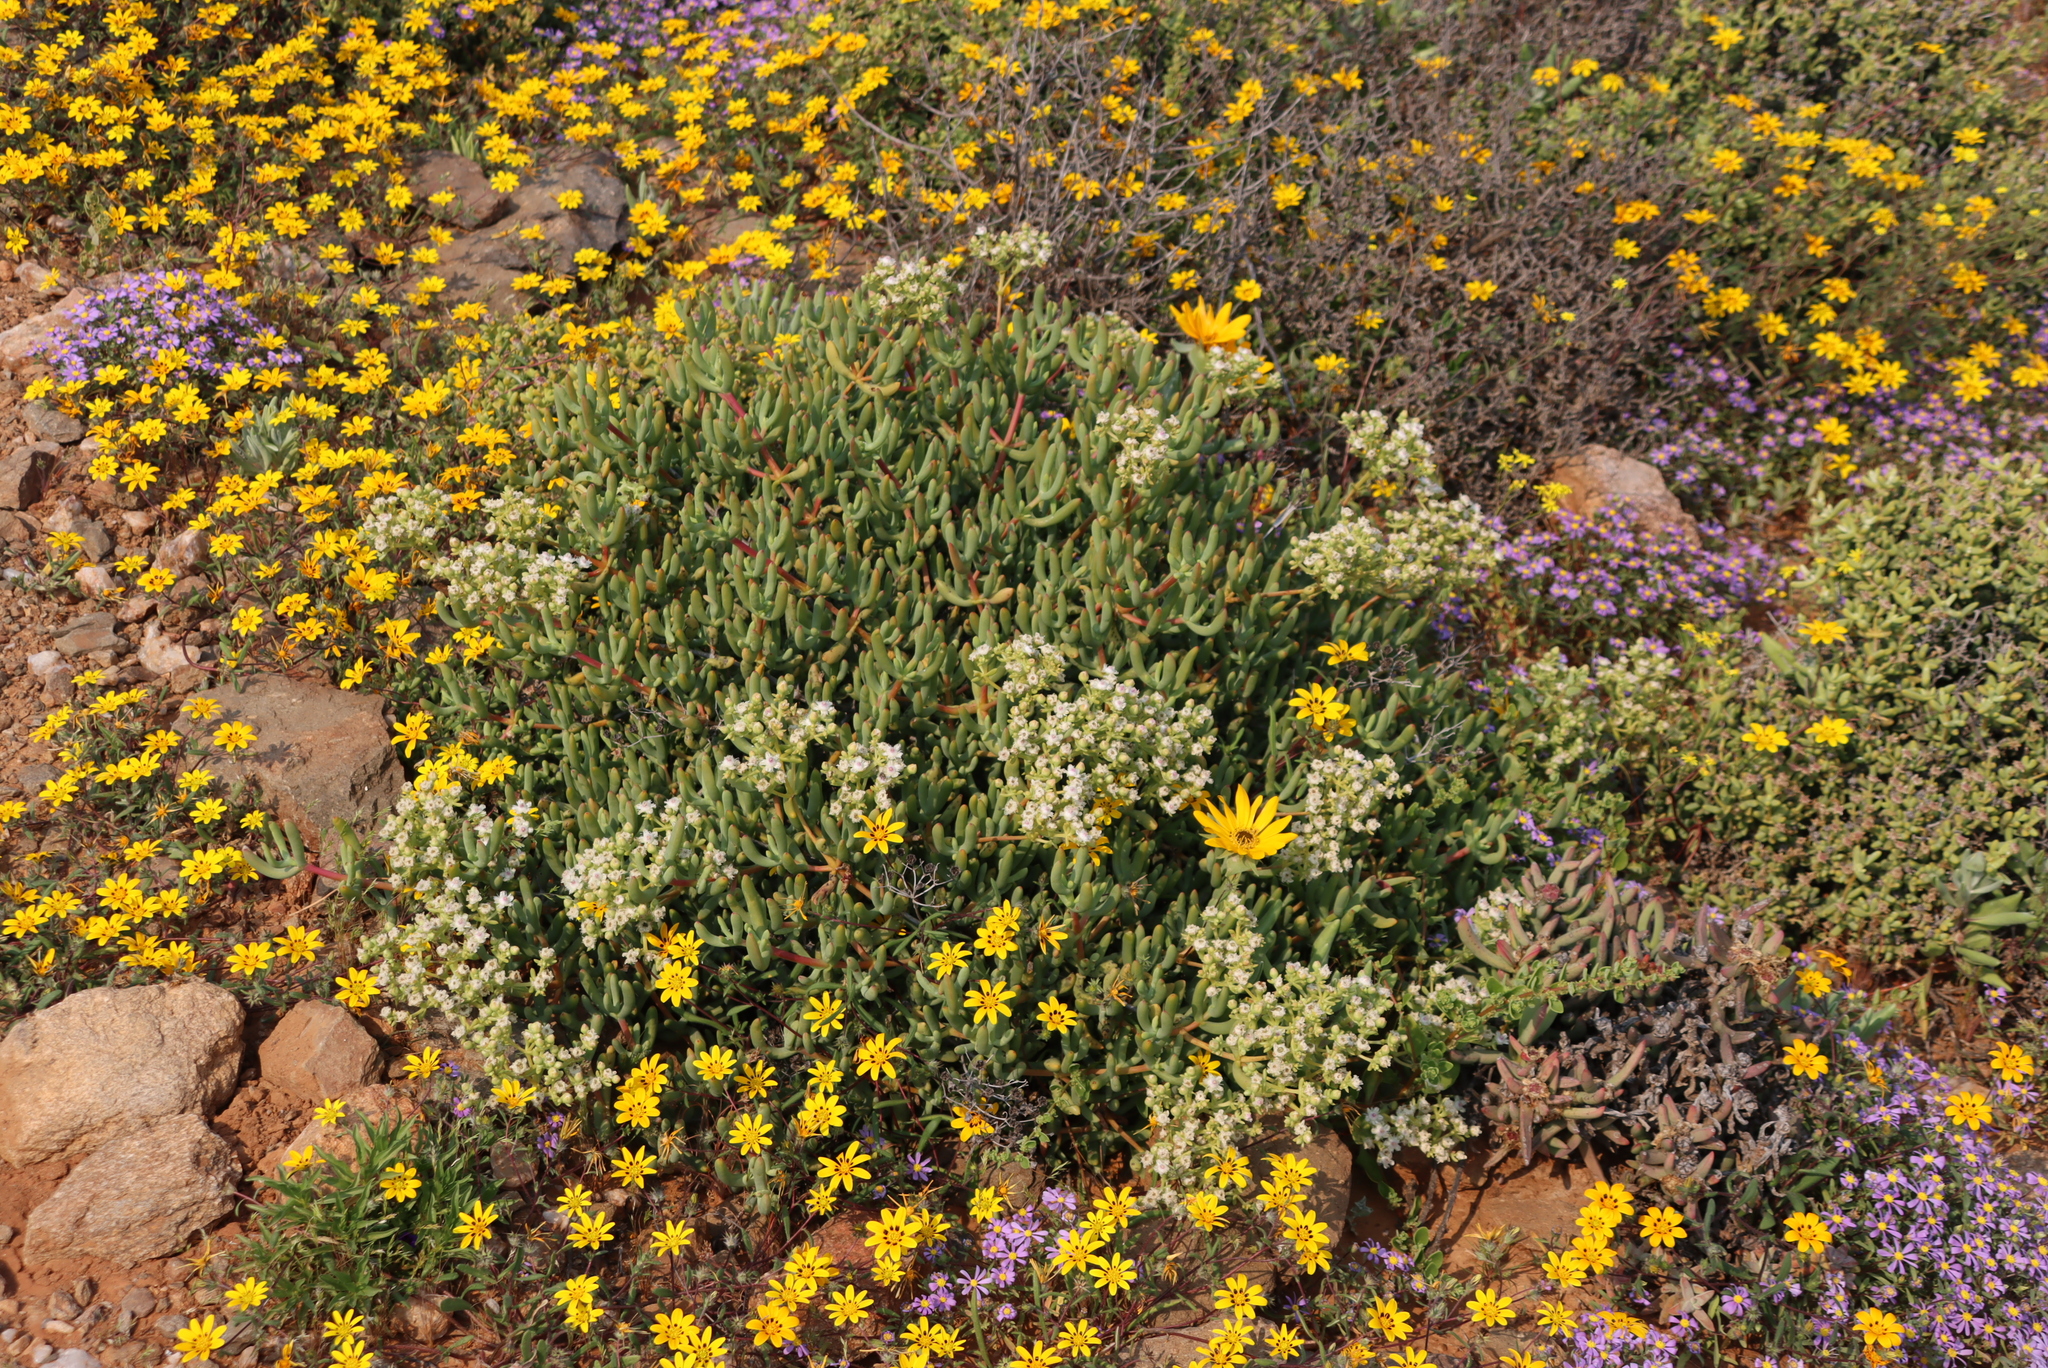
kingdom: Plantae
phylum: Tracheophyta
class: Magnoliopsida
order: Caryophyllales
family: Aizoaceae
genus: Stoeberia
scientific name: Stoeberia frutescens
